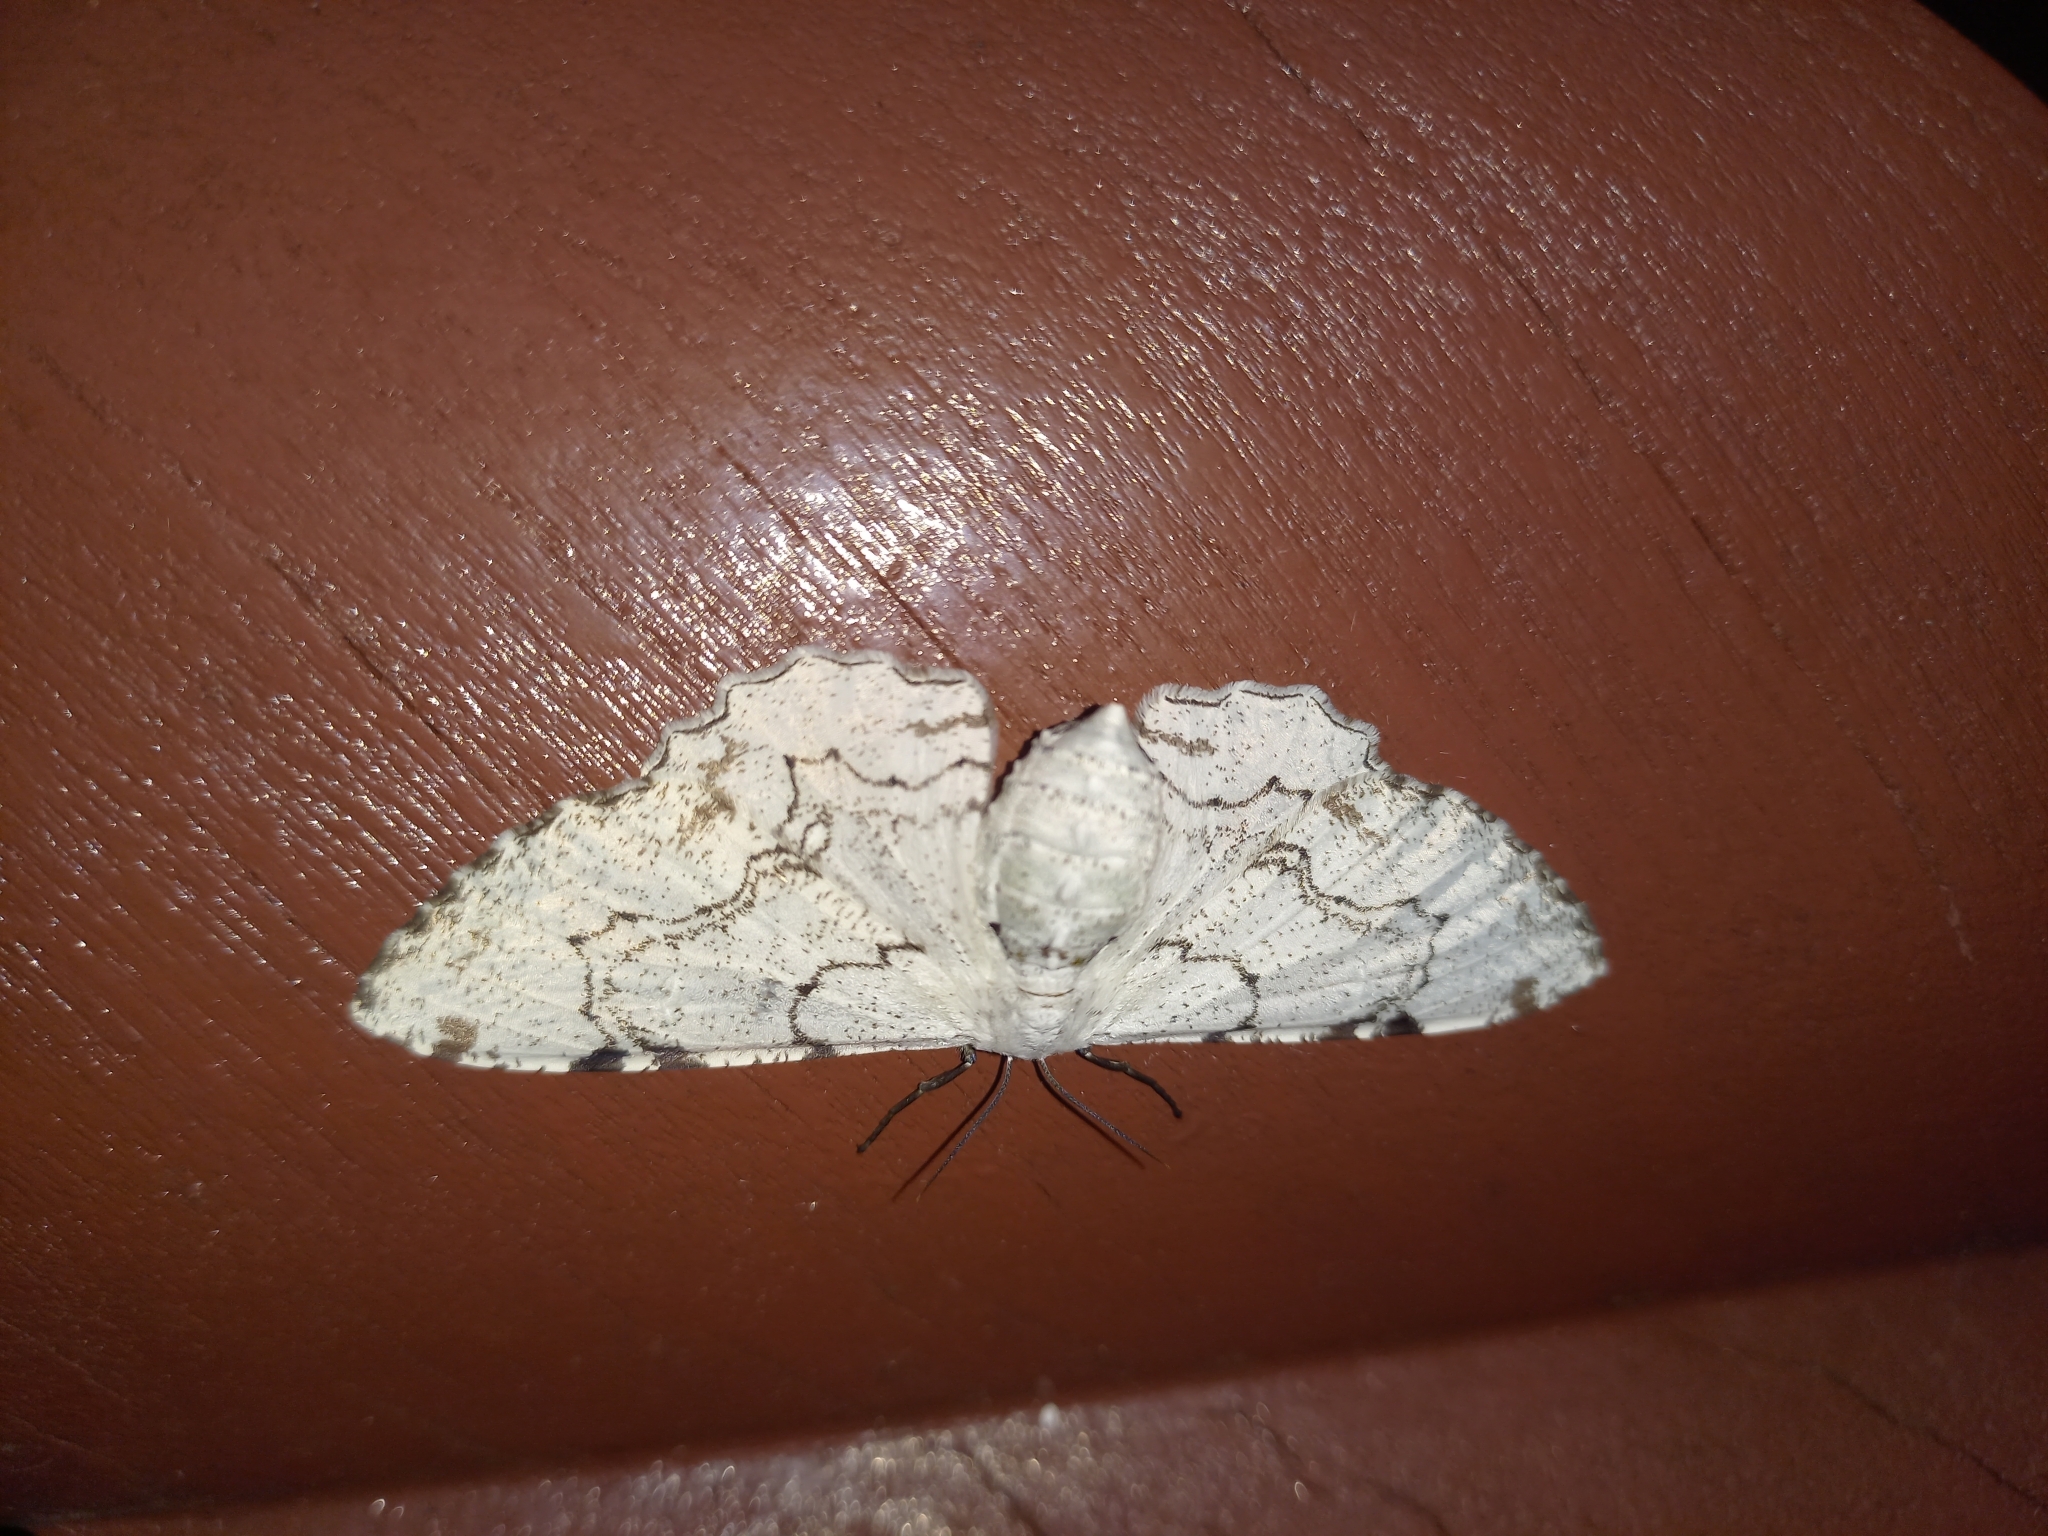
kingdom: Animalia
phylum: Arthropoda
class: Insecta
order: Lepidoptera
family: Geometridae
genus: Thyrinteina
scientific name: Thyrinteina arnobia
